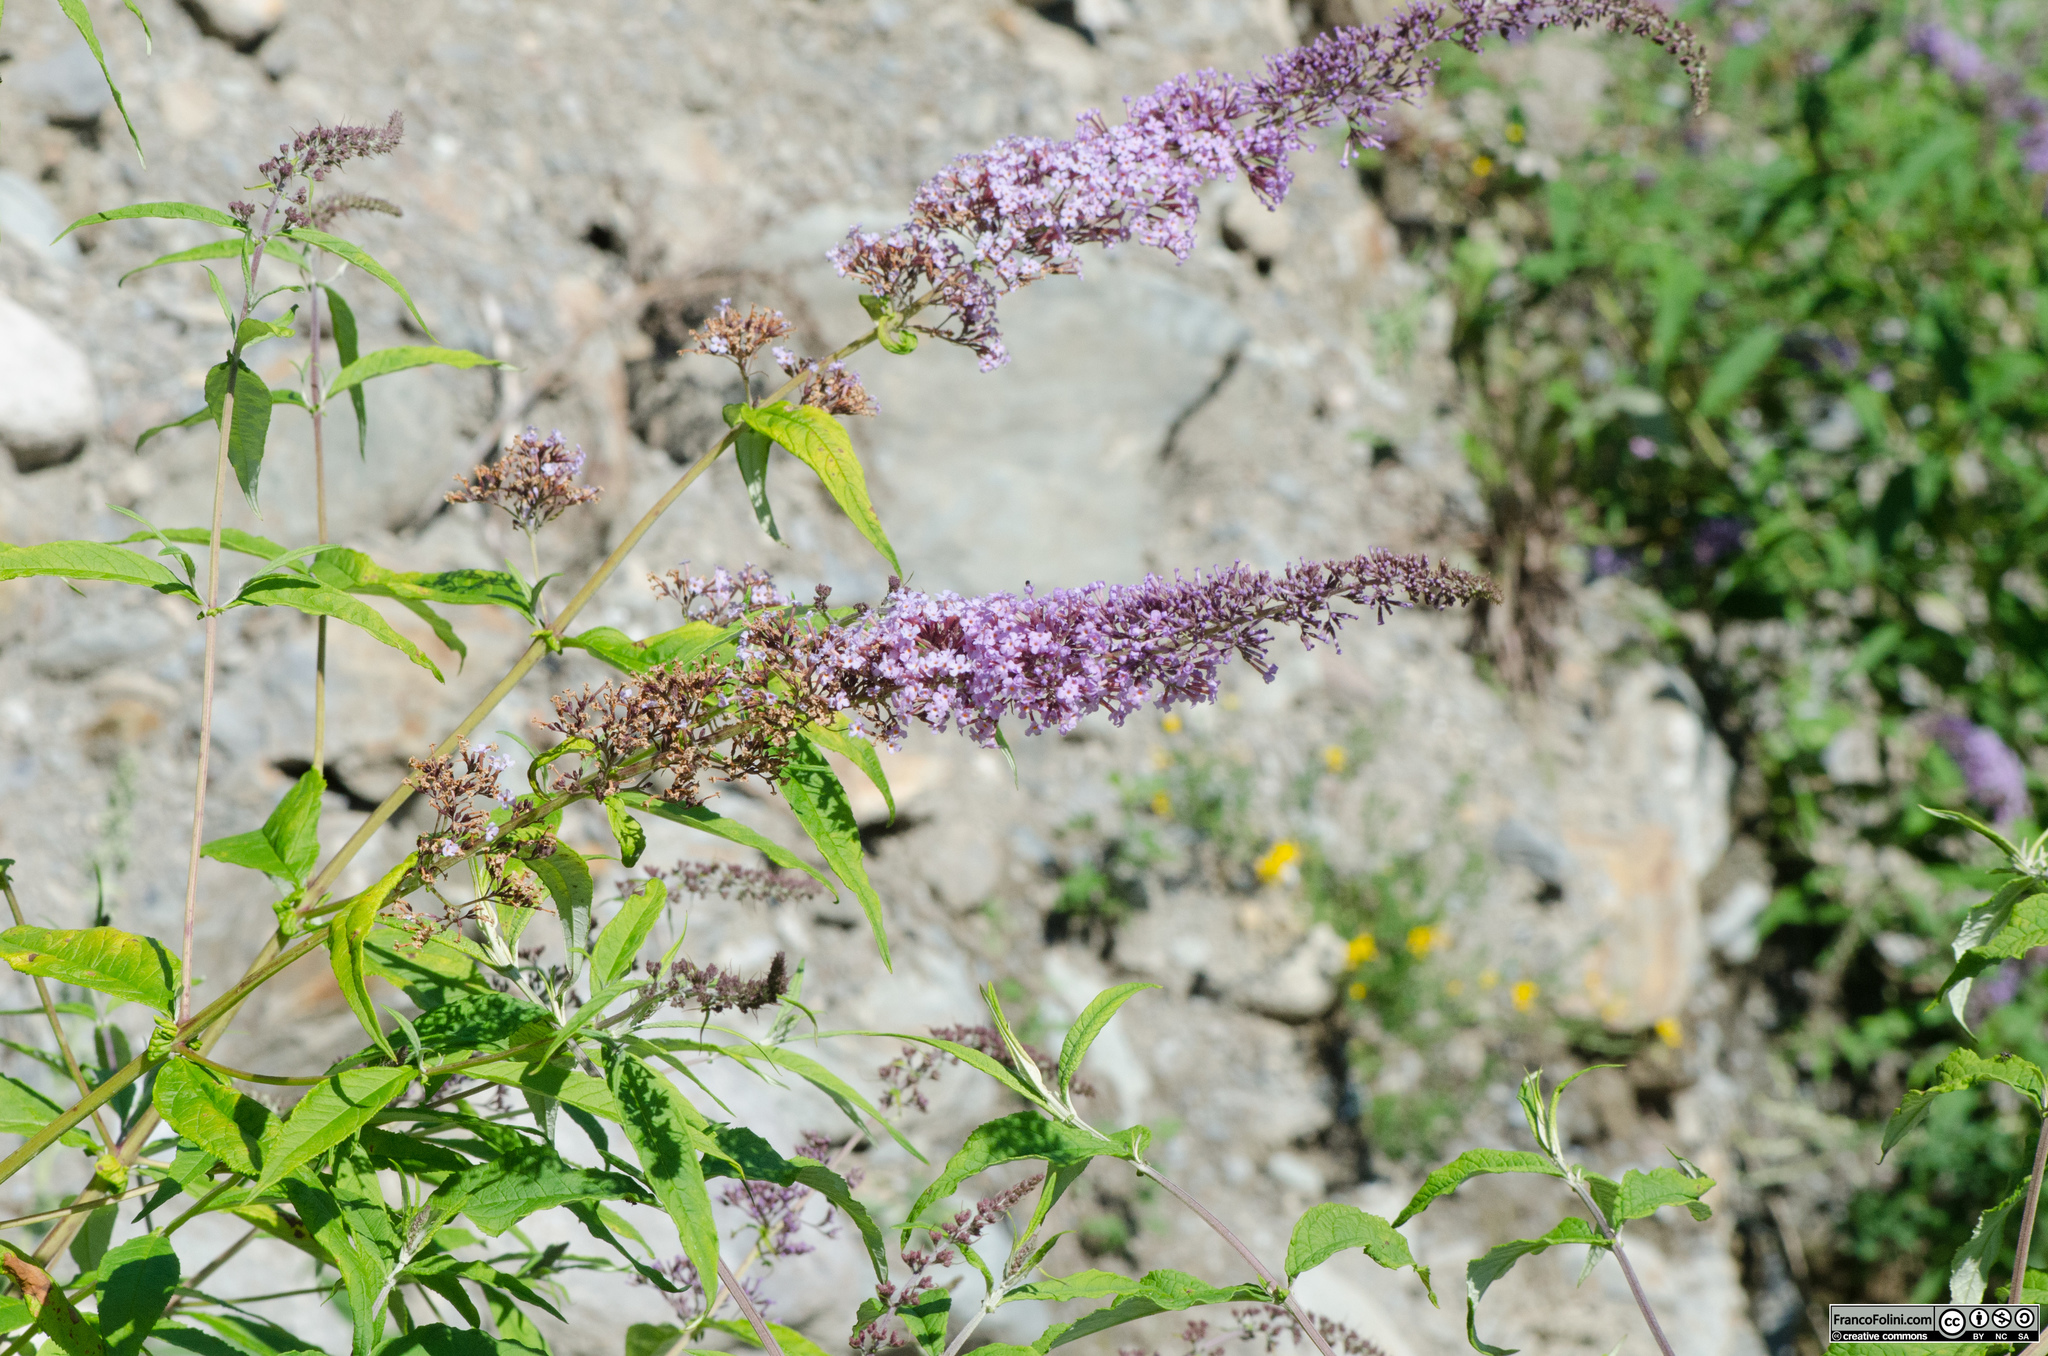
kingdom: Plantae
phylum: Tracheophyta
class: Magnoliopsida
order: Lamiales
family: Scrophulariaceae
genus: Buddleja
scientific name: Buddleja davidii
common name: Butterfly-bush
